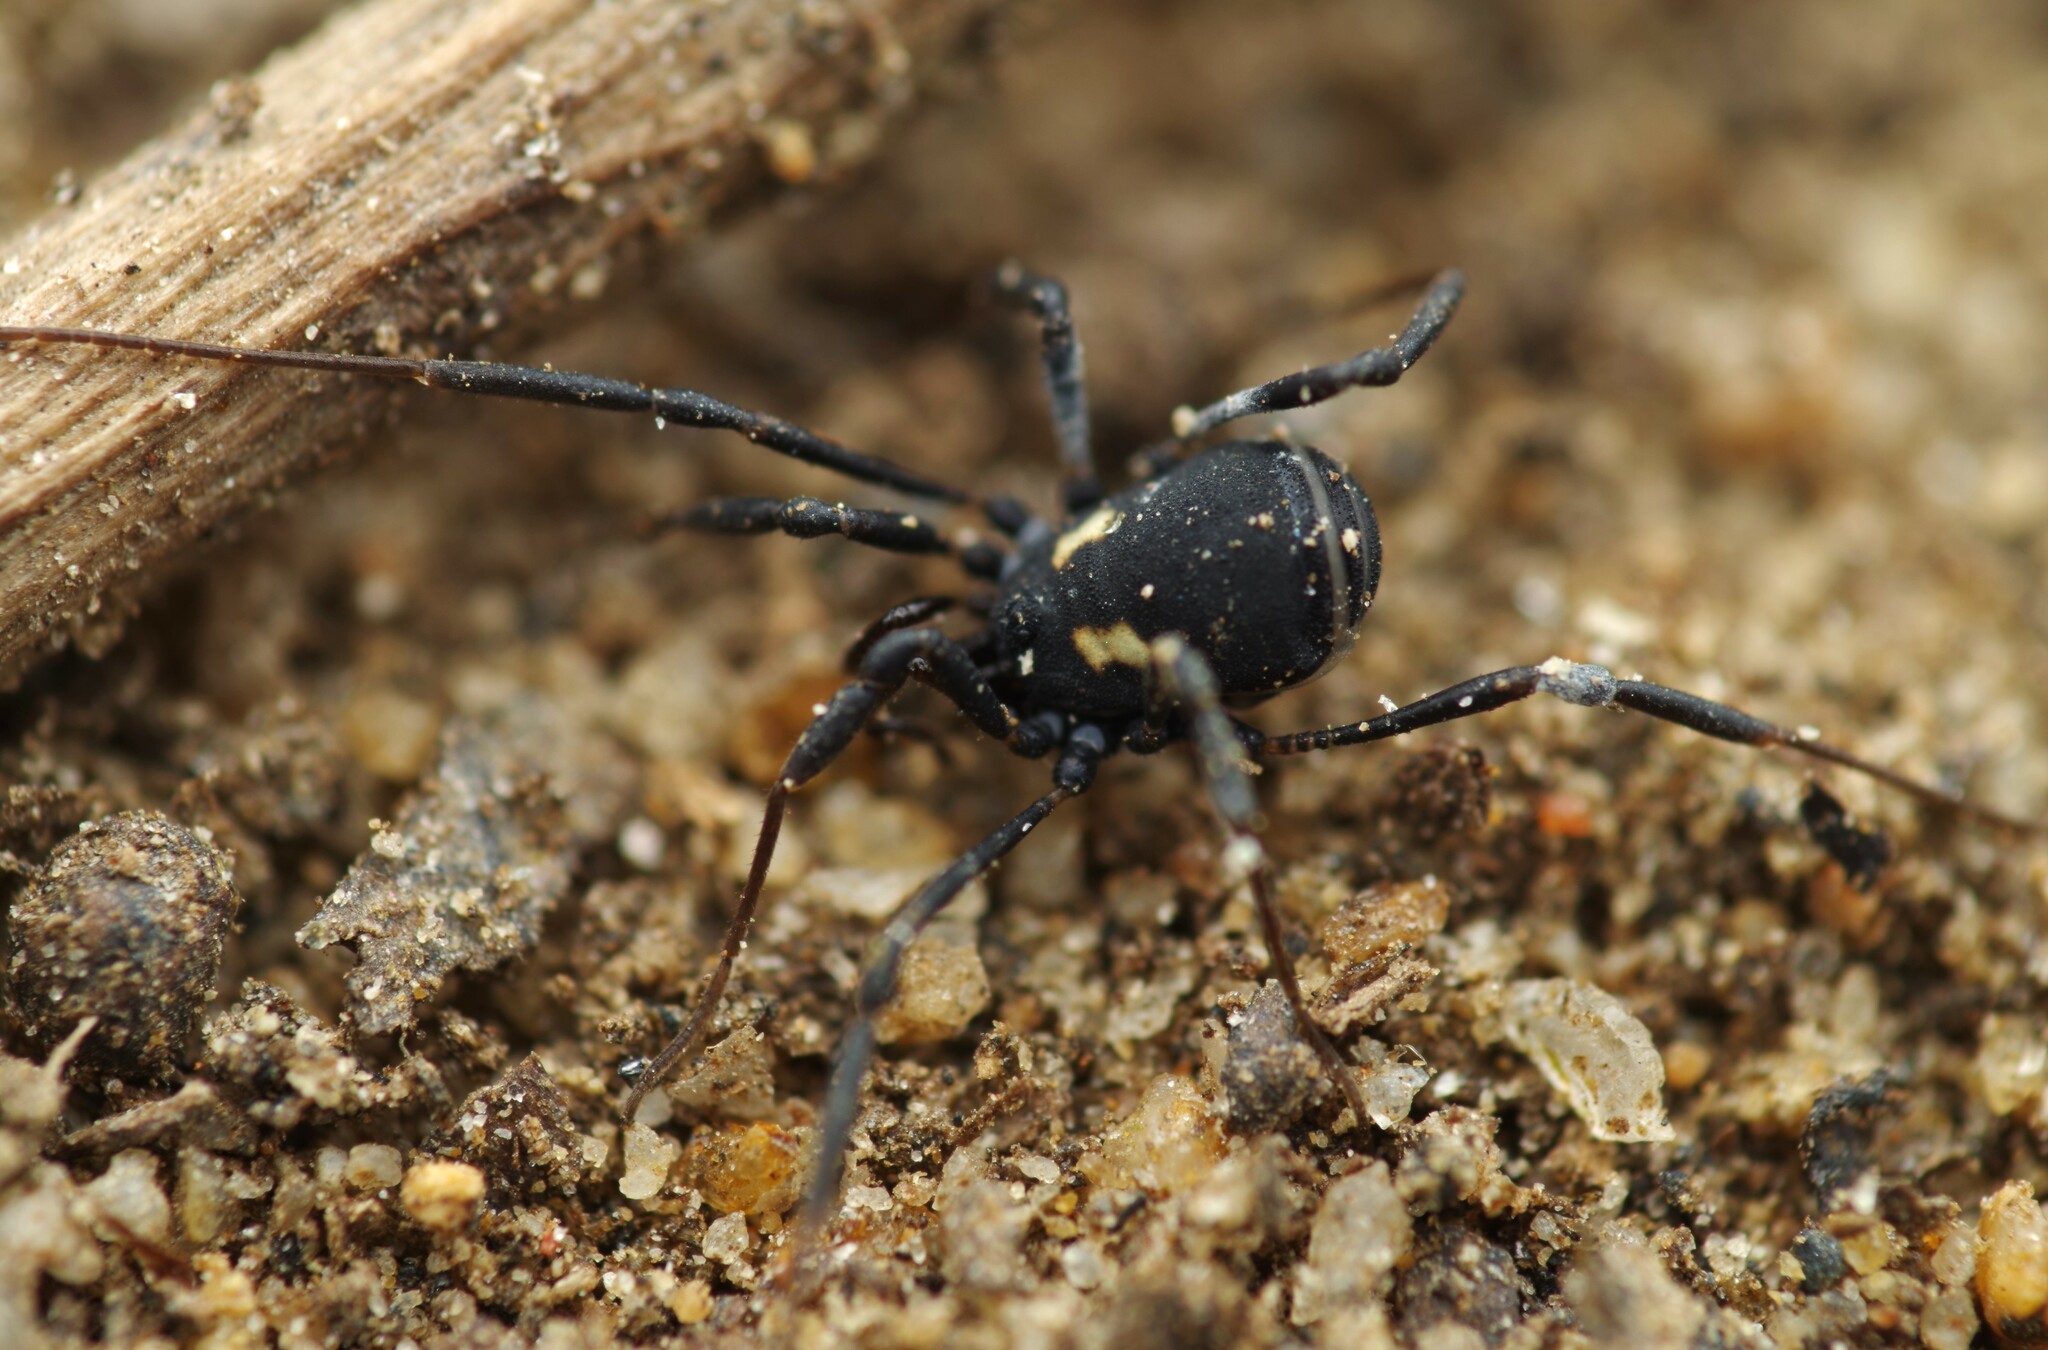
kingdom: Animalia
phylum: Arthropoda
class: Arachnida
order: Opiliones
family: Nemastomatidae
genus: Nemastoma
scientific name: Nemastoma bimaculatum
